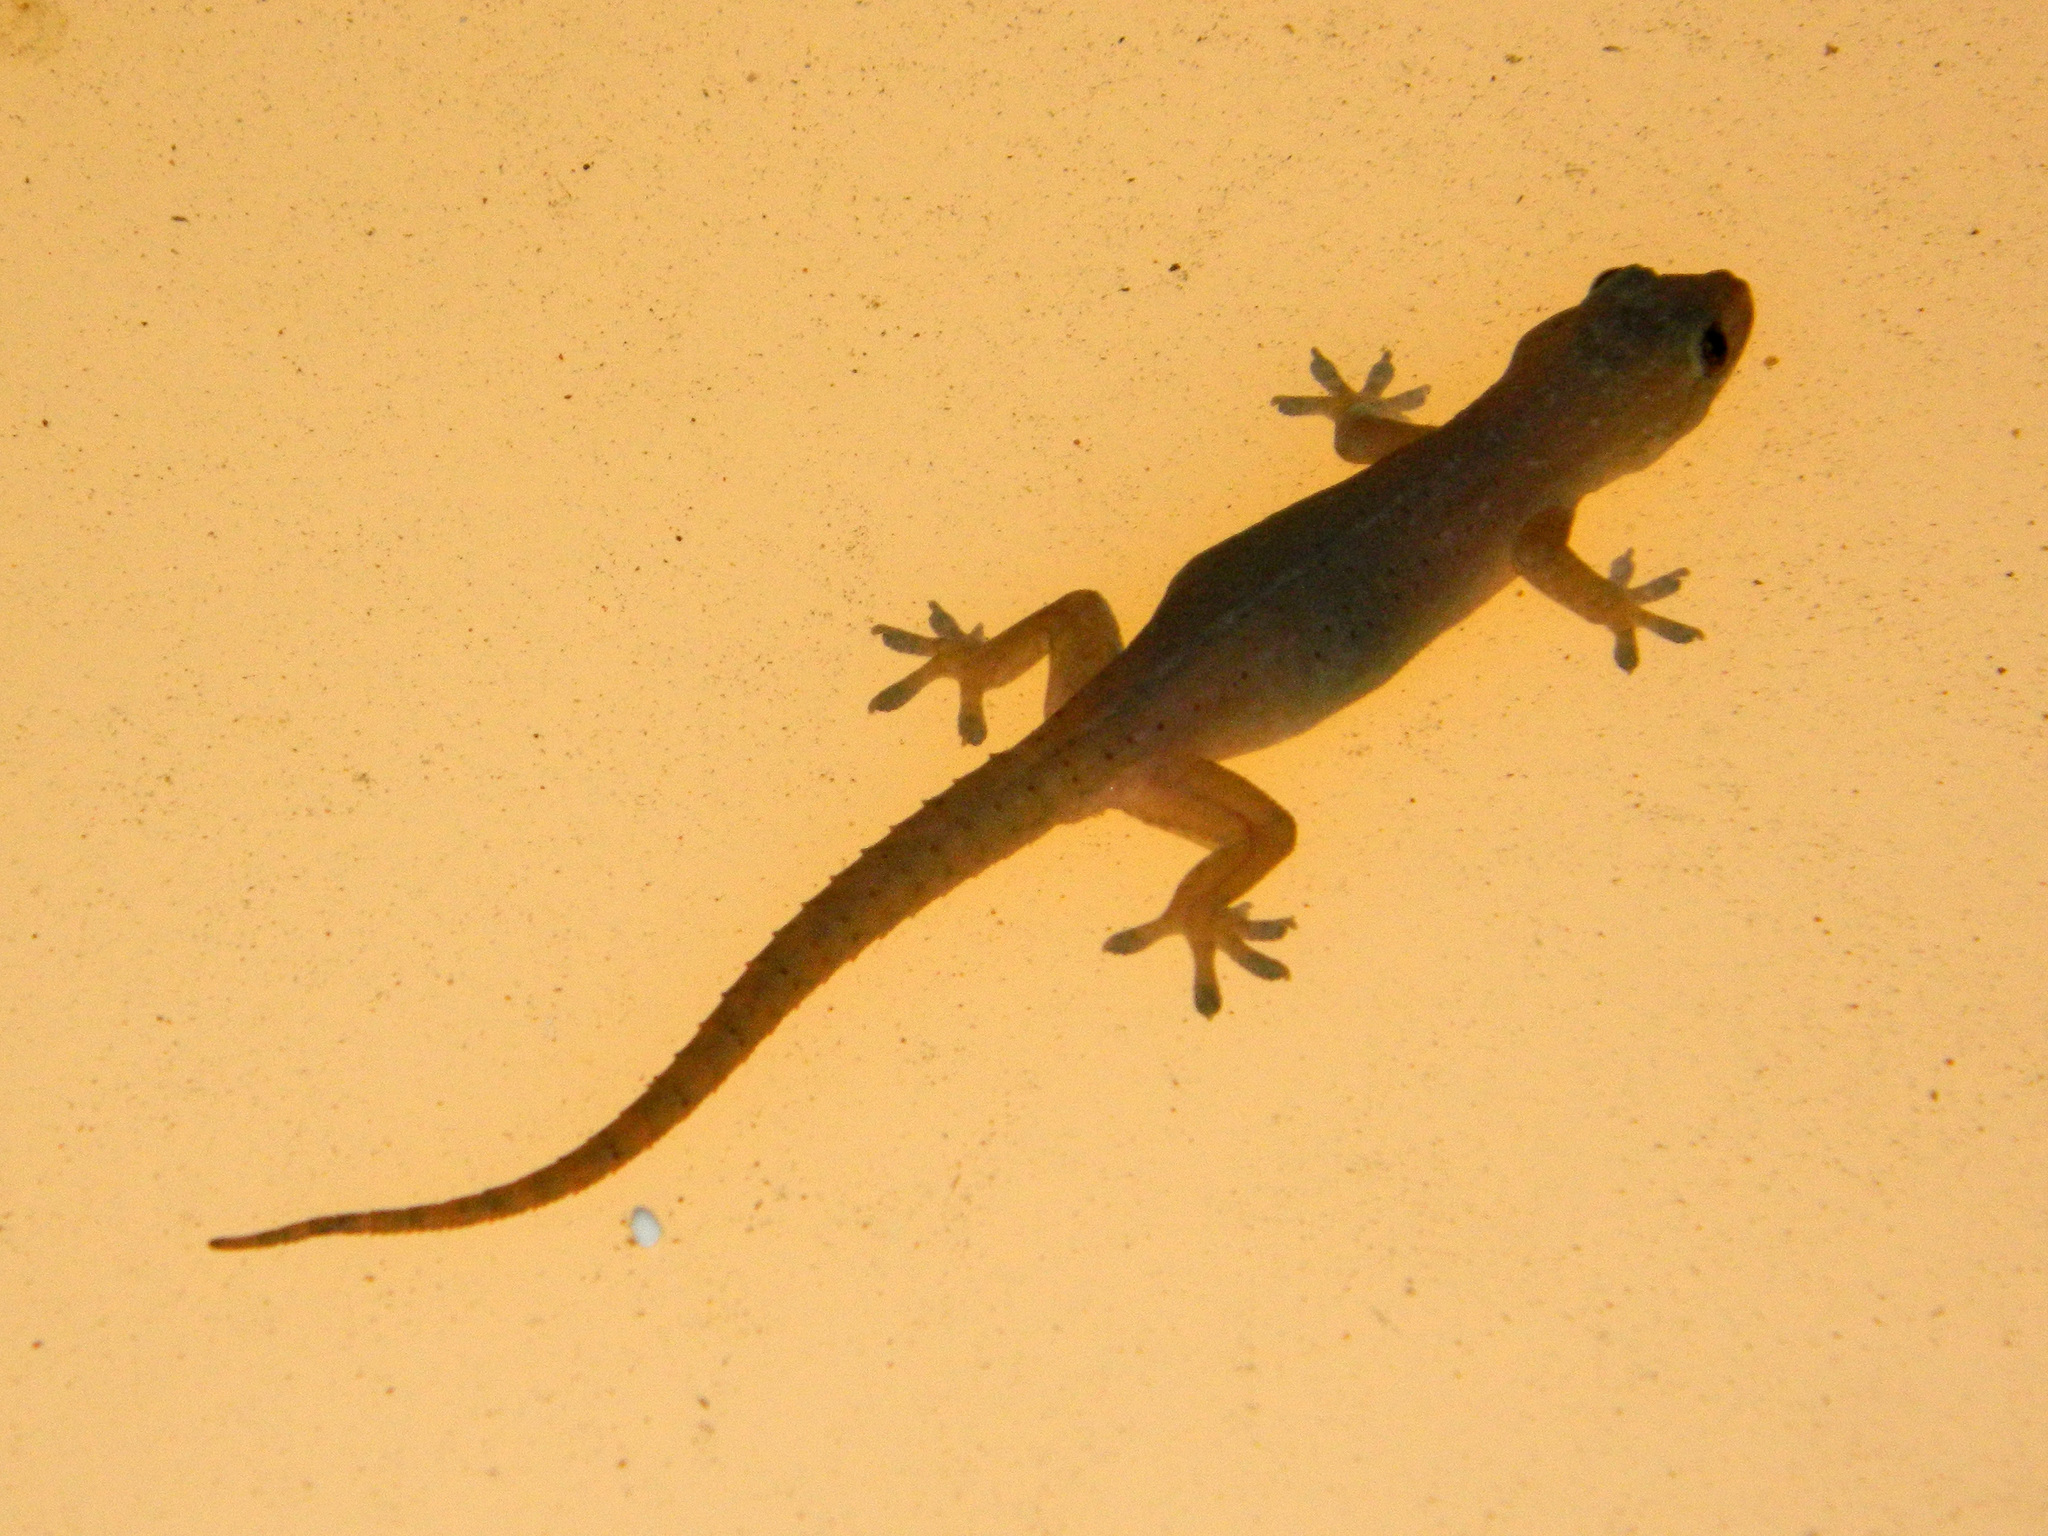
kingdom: Animalia
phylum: Chordata
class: Squamata
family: Gekkonidae
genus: Hemidactylus
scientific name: Hemidactylus frenatus
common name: Common house gecko
